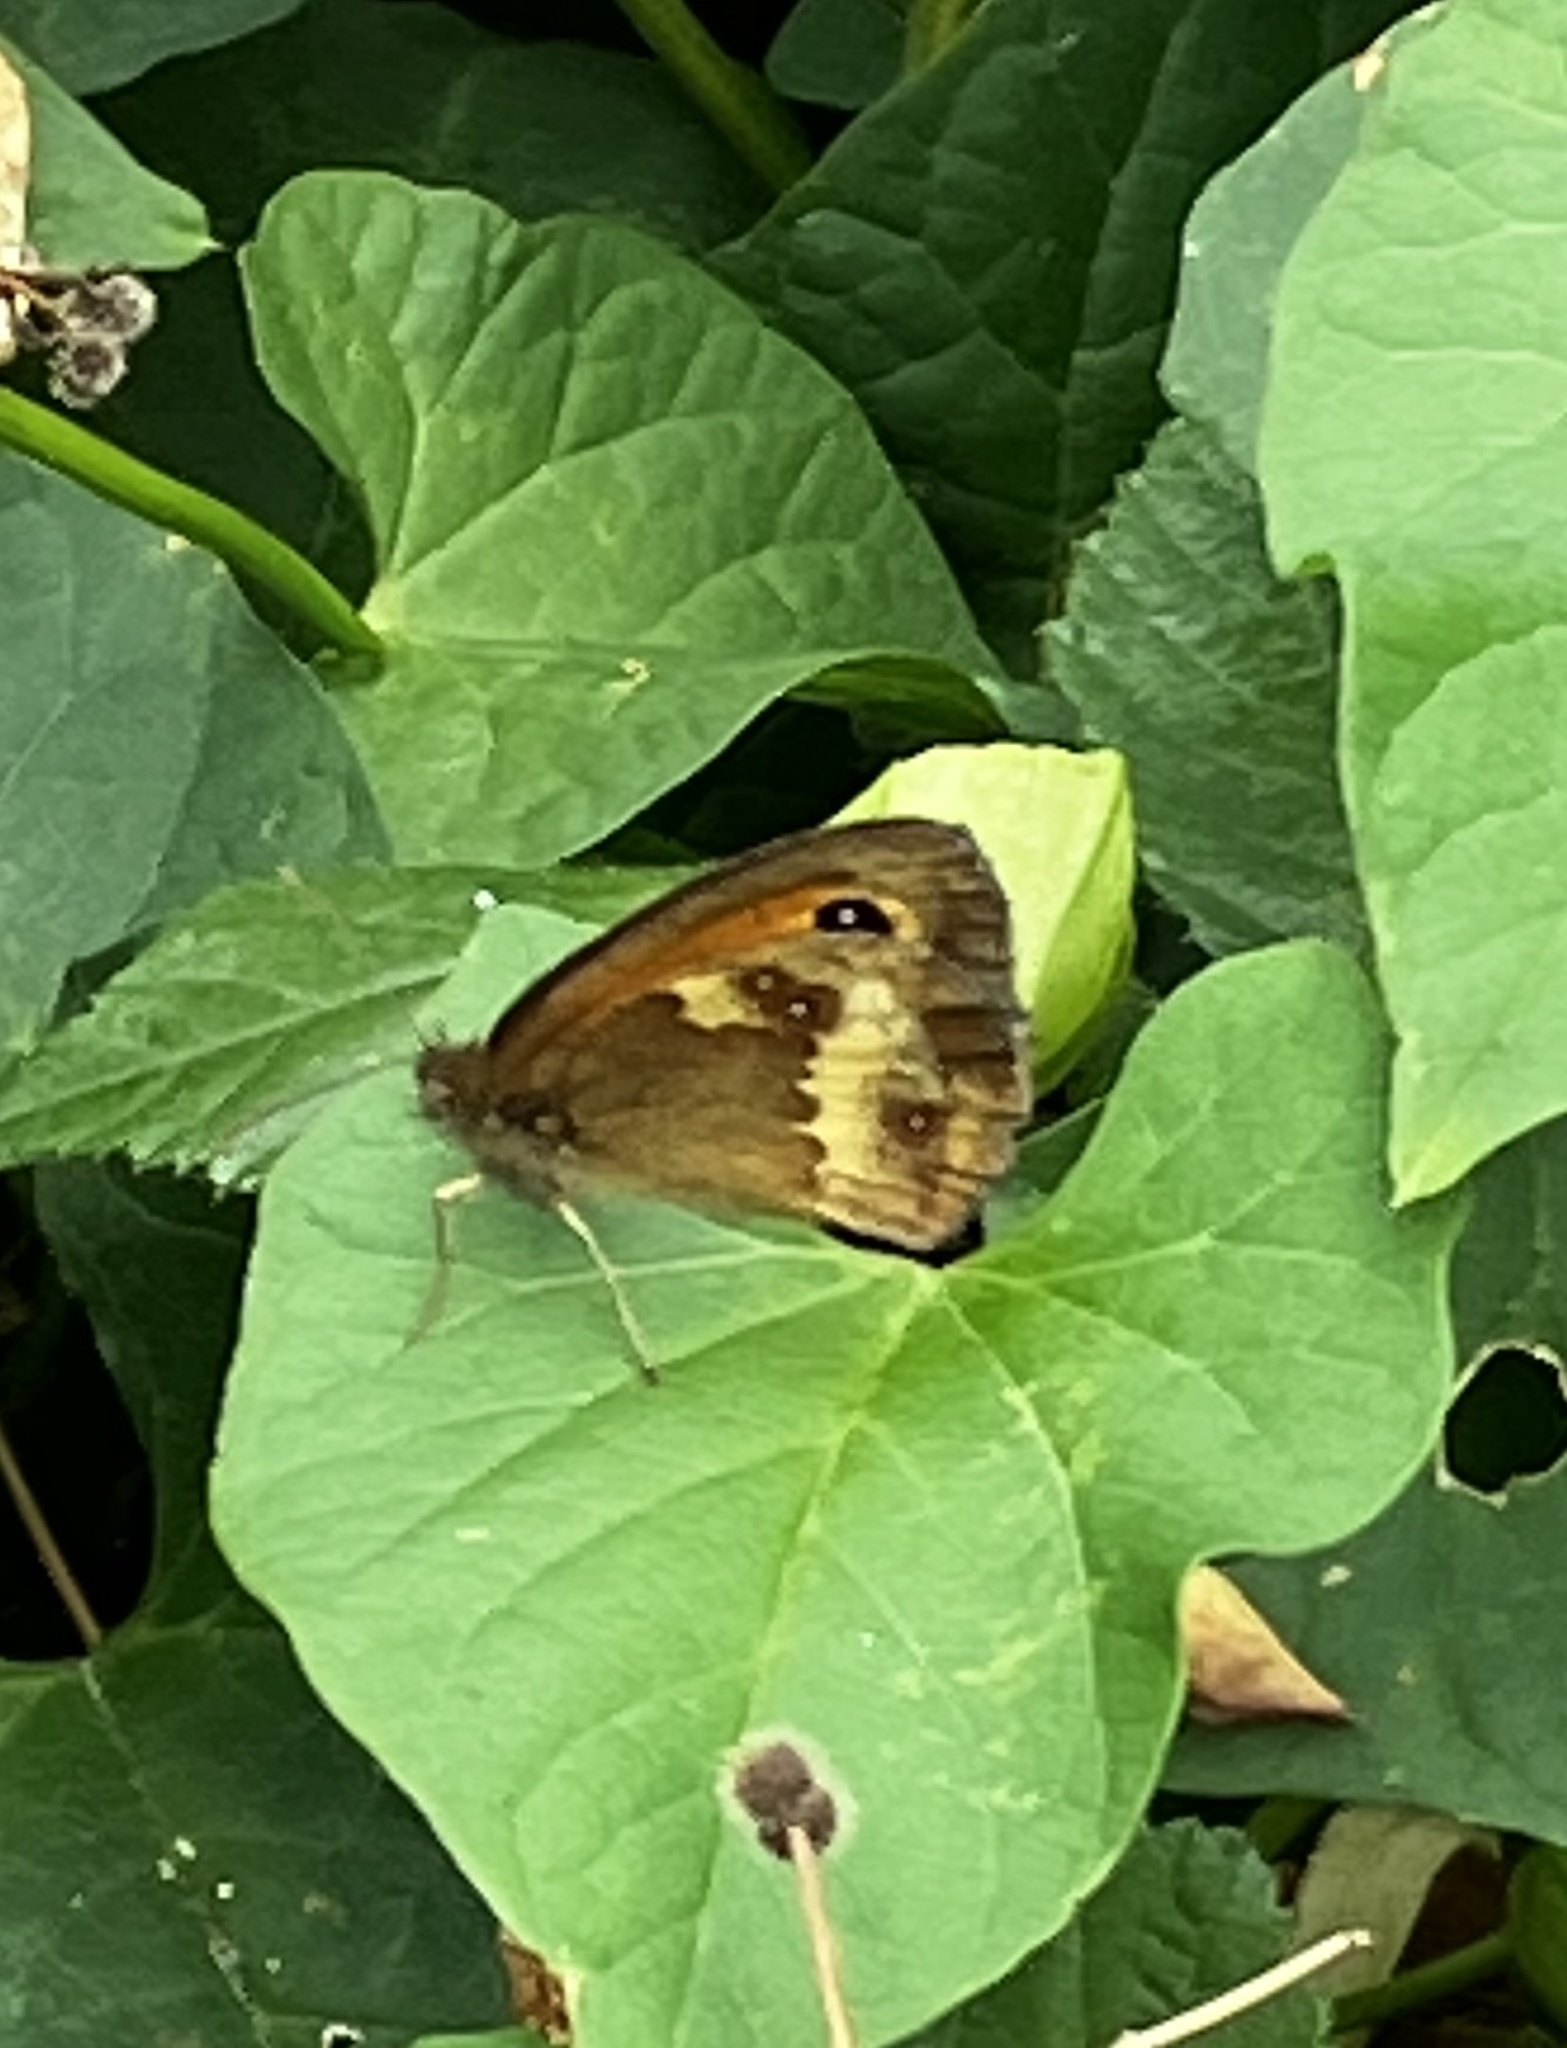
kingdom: Animalia
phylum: Arthropoda
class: Insecta
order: Lepidoptera
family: Nymphalidae
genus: Pyronia
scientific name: Pyronia tithonus
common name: Gatekeeper
